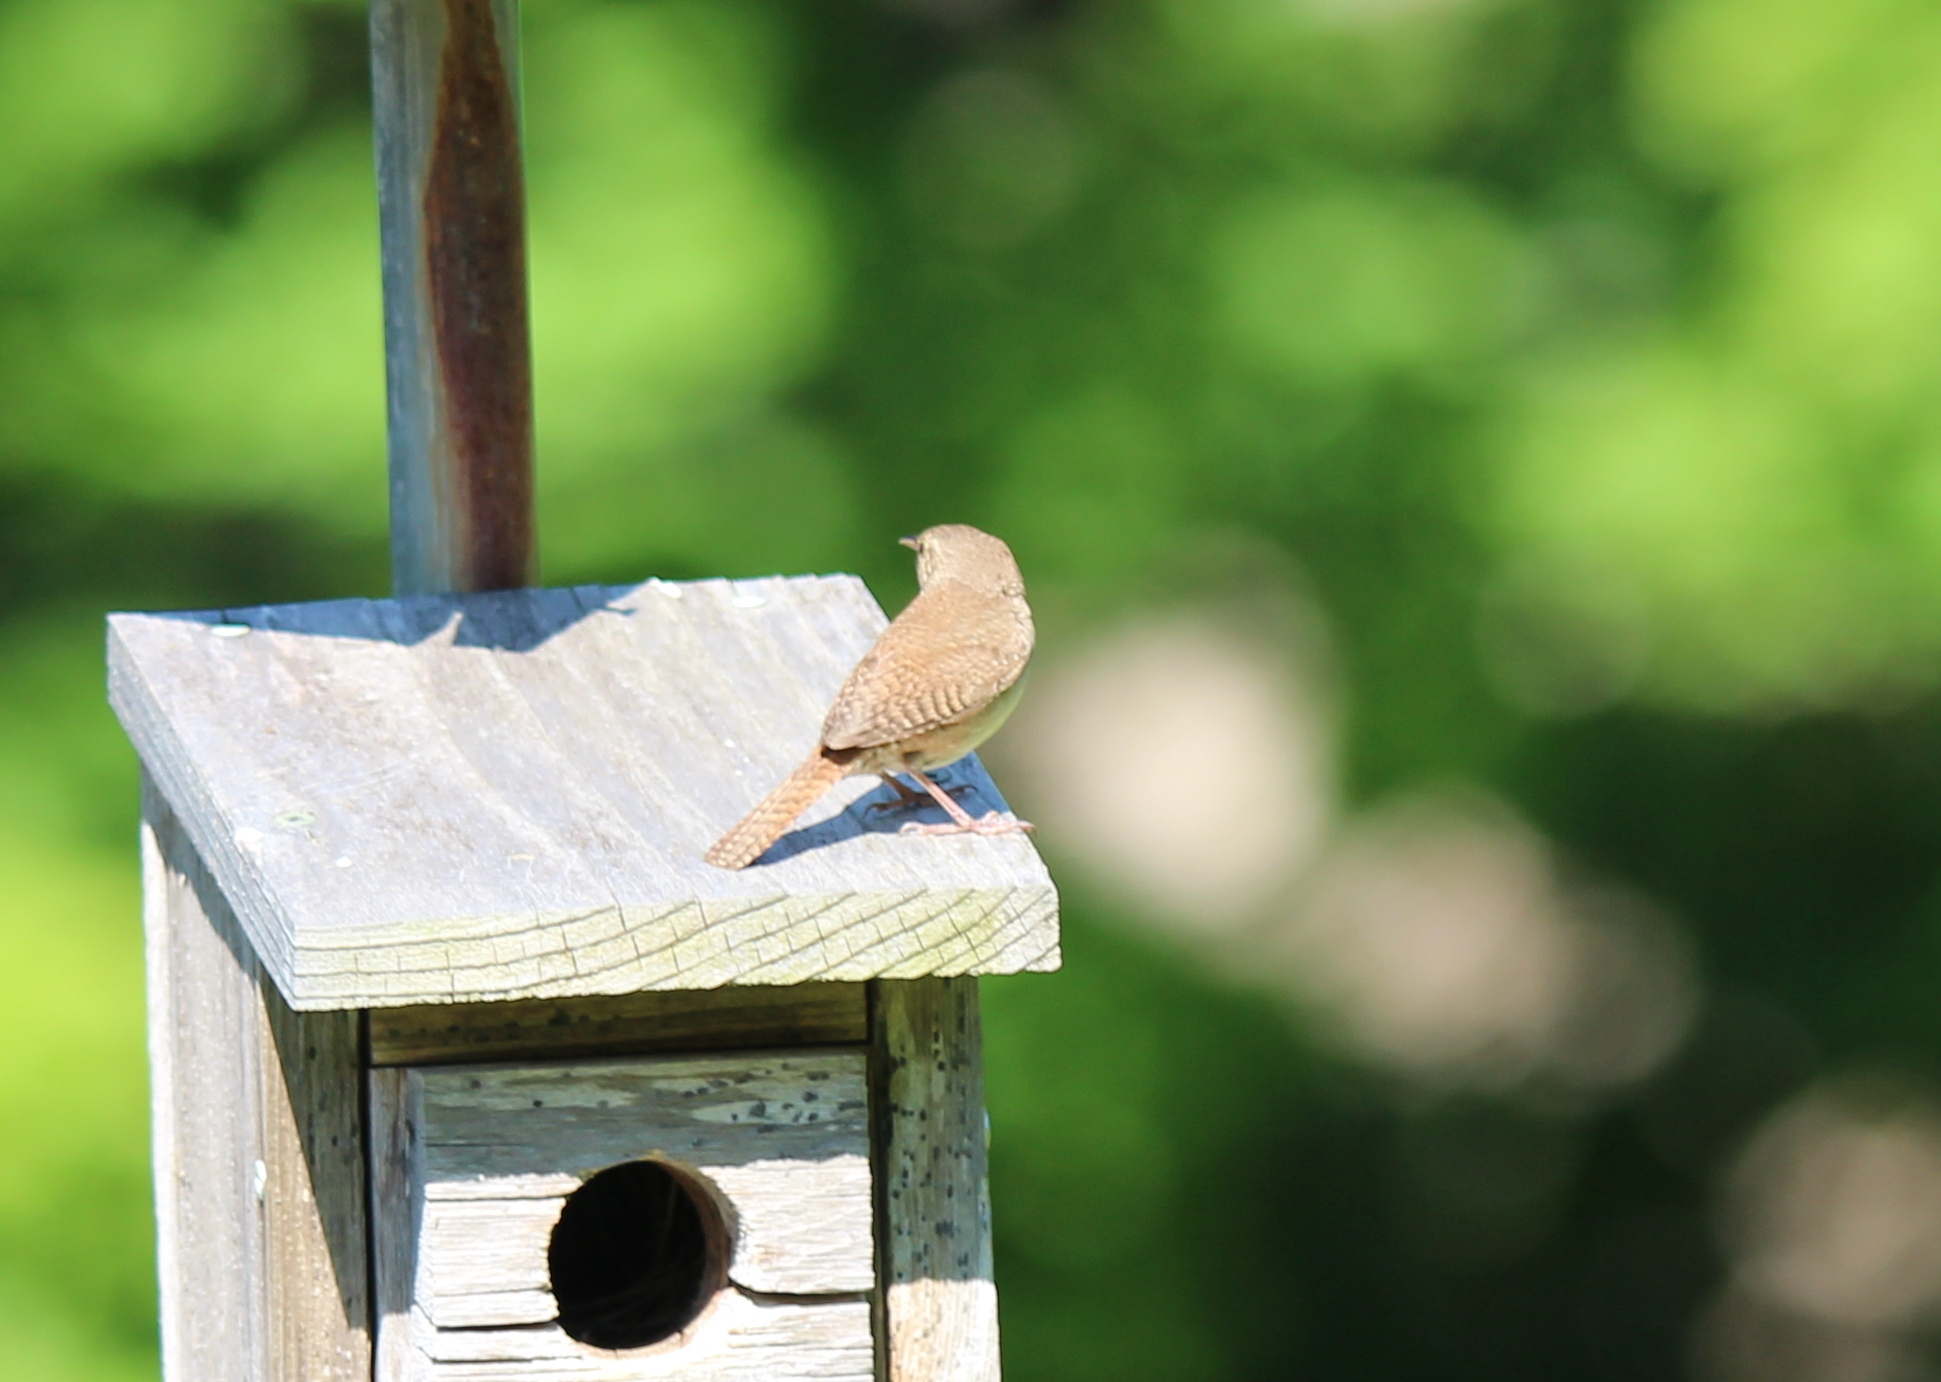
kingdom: Animalia
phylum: Chordata
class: Aves
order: Passeriformes
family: Troglodytidae
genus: Troglodytes
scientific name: Troglodytes aedon
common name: House wren
